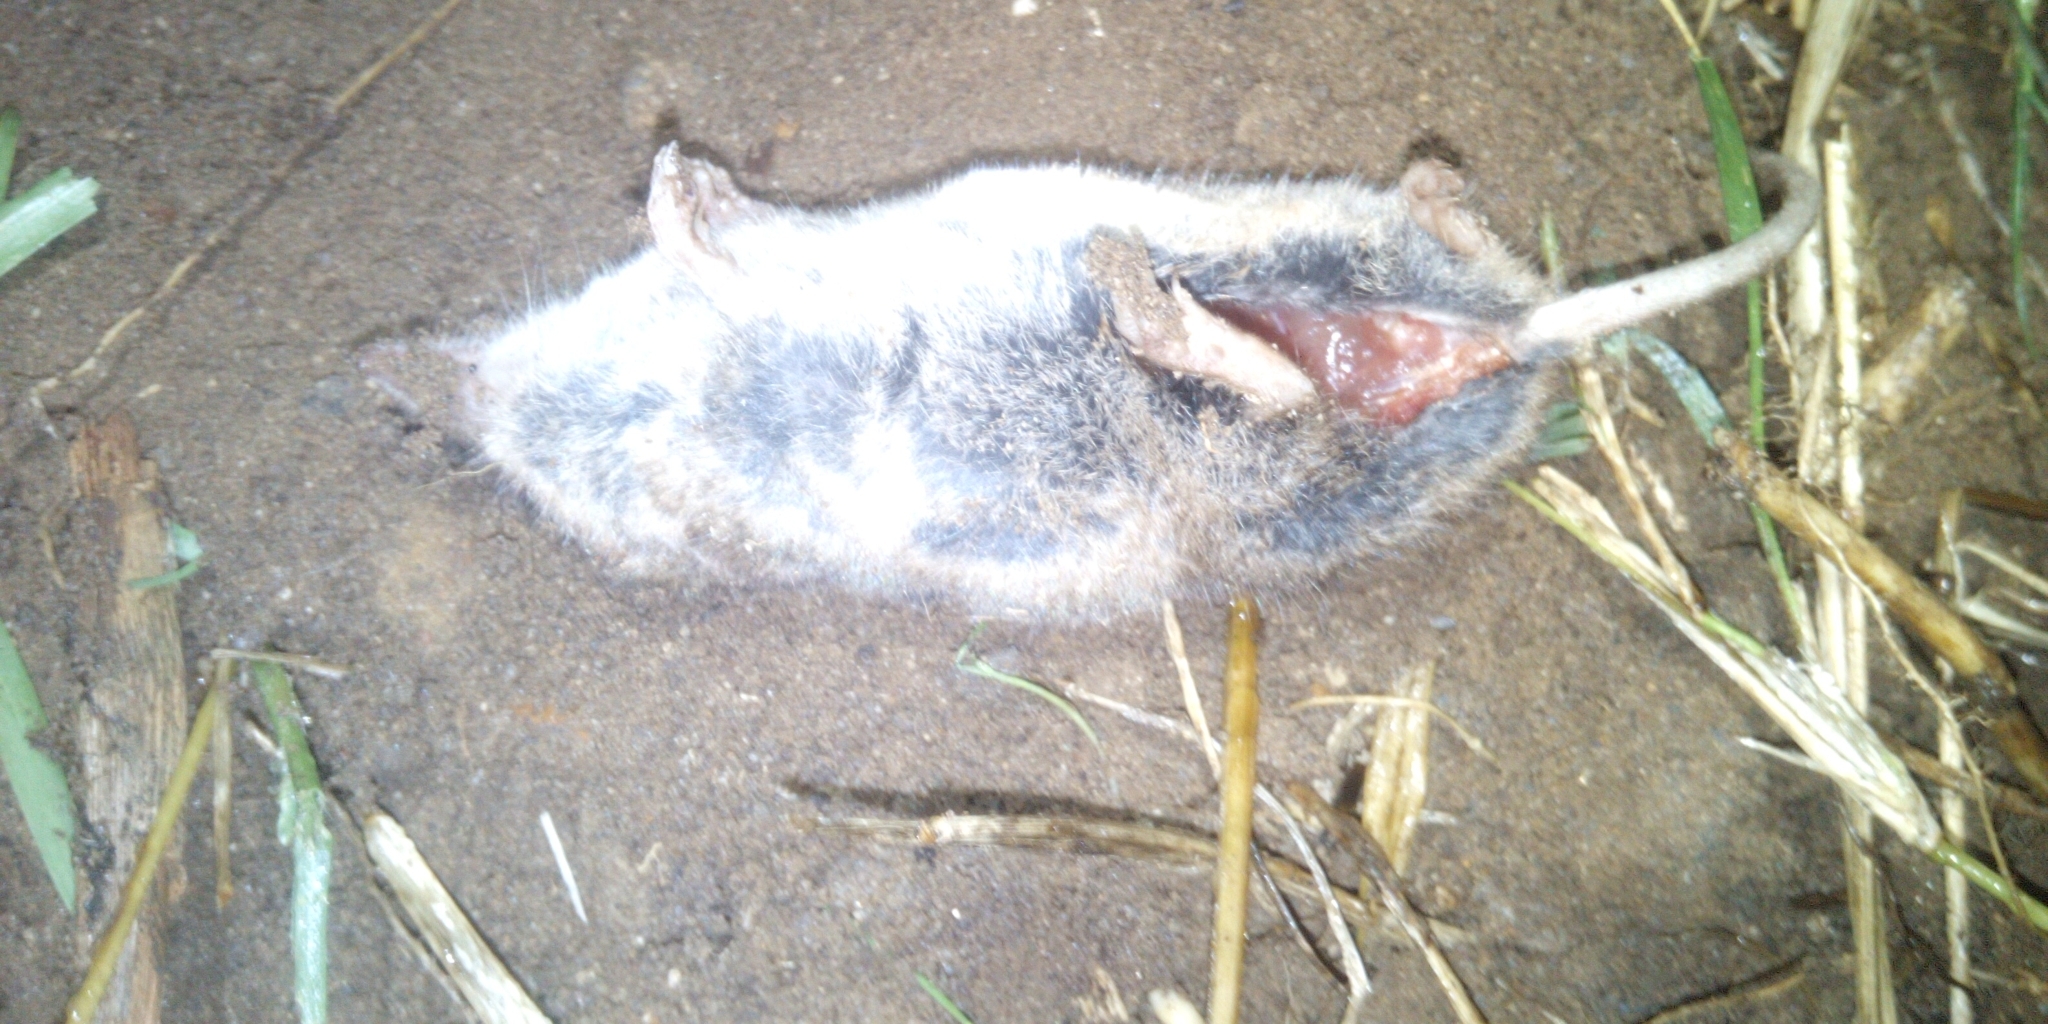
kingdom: Animalia
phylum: Chordata
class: Mammalia
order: Soricomorpha
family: Soricidae
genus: Myosorex
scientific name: Myosorex varius
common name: Forest shrew
